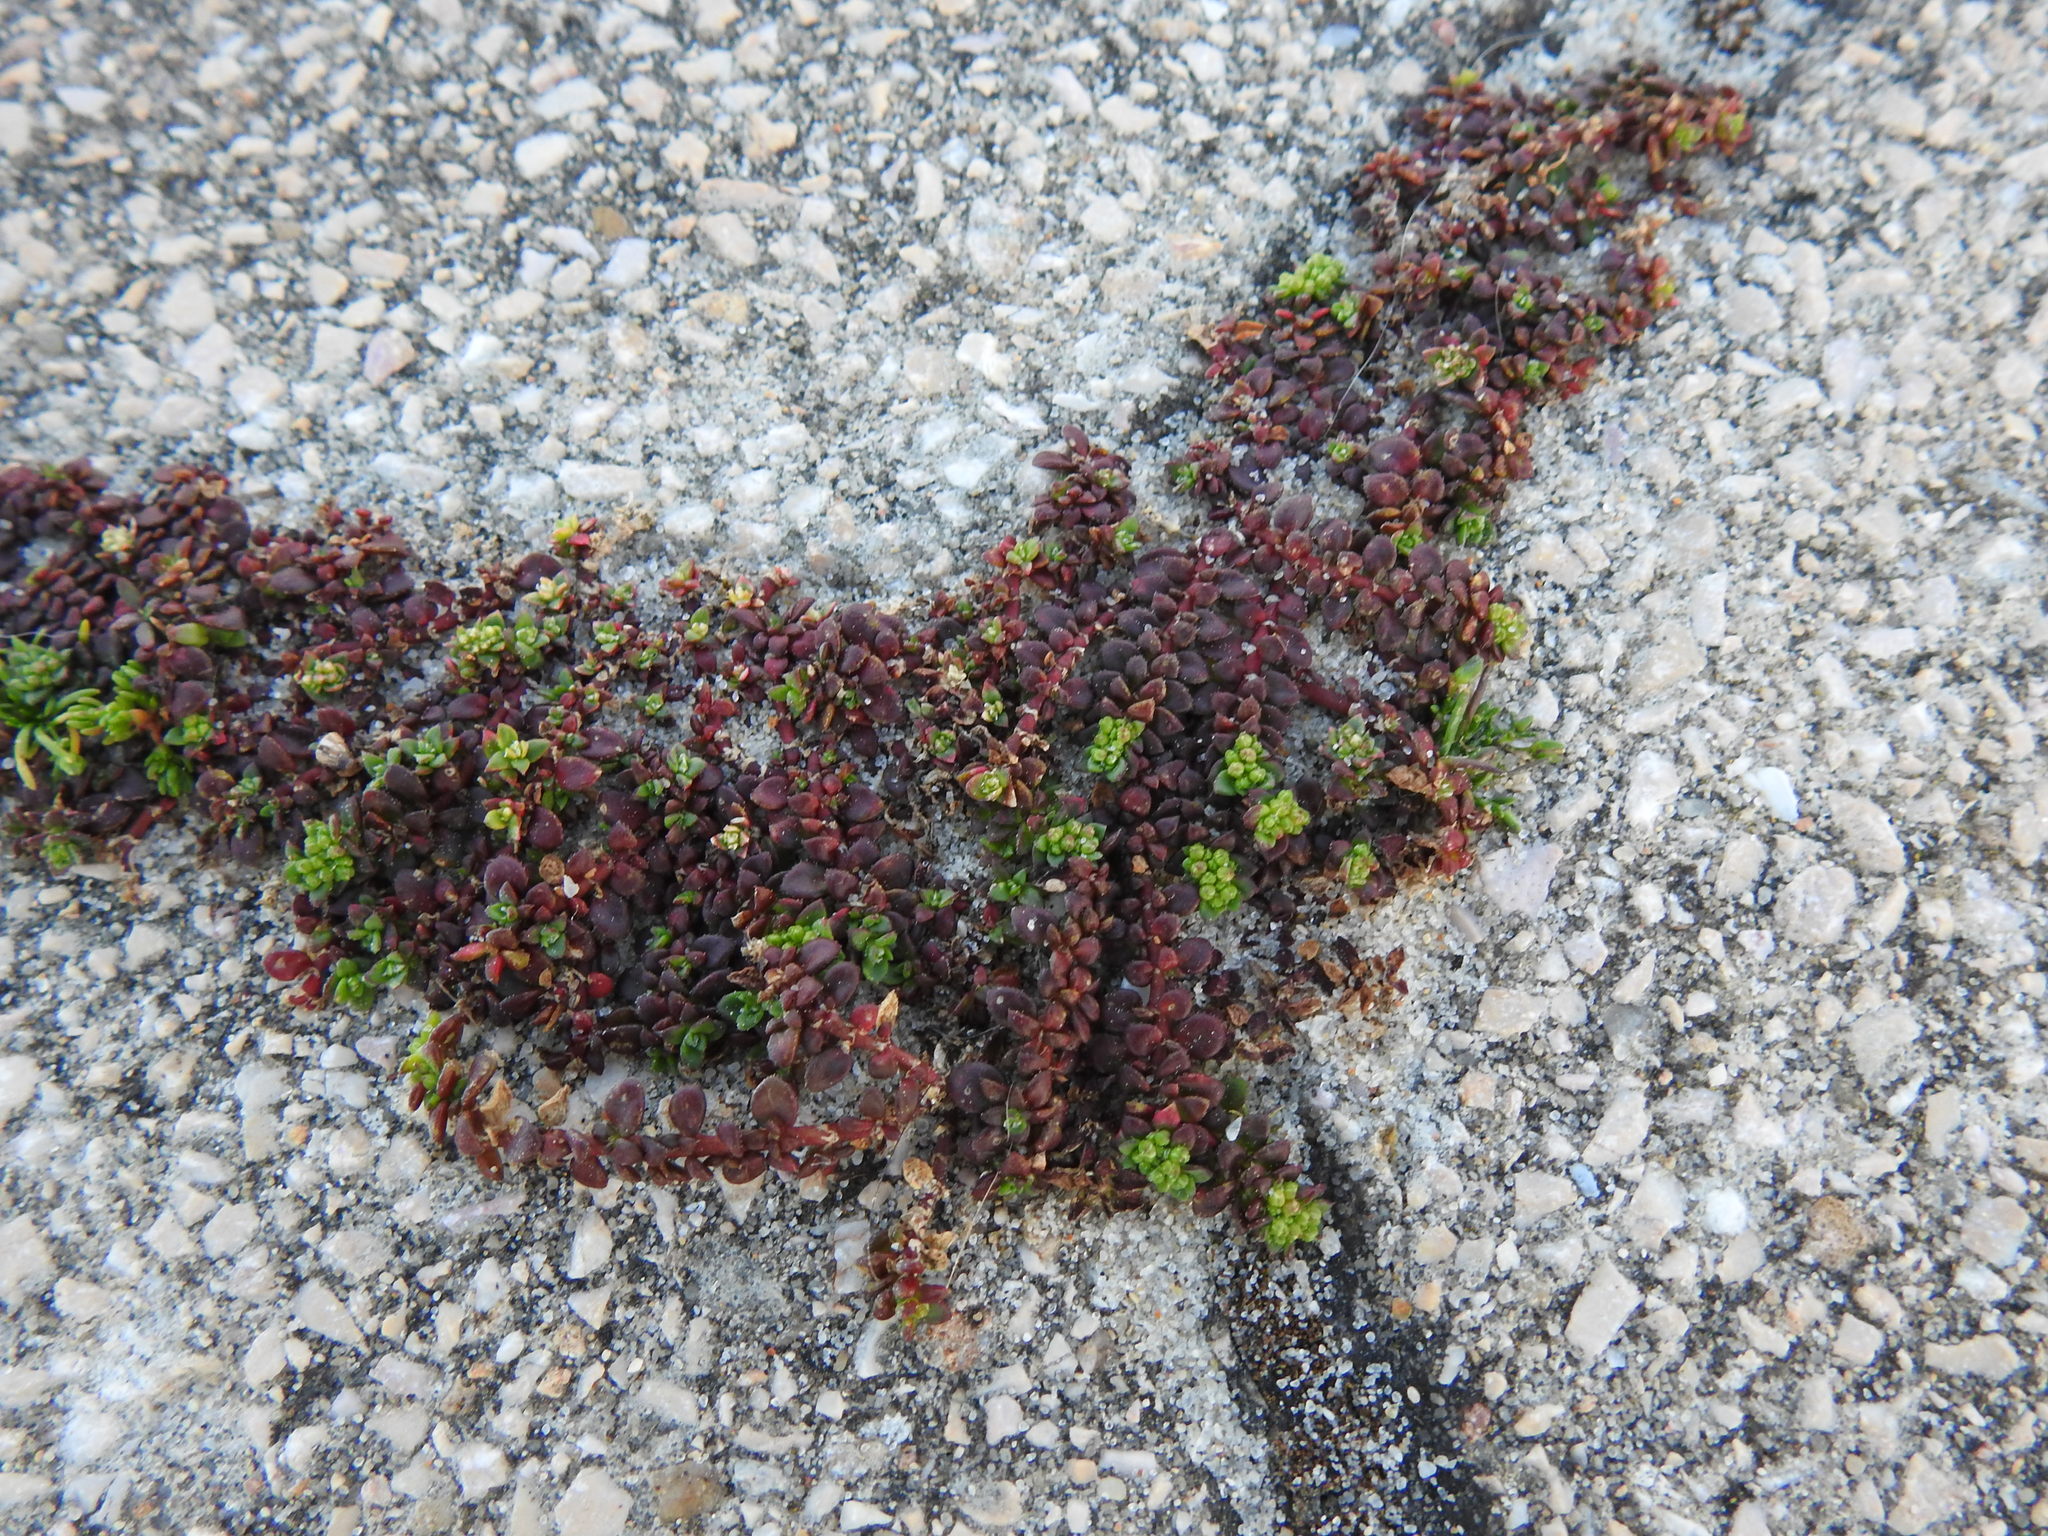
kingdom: Plantae
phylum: Tracheophyta
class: Magnoliopsida
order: Caryophyllales
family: Caryophyllaceae
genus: Herniaria
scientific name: Herniaria ciliolata
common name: Fringed rupture-wort
